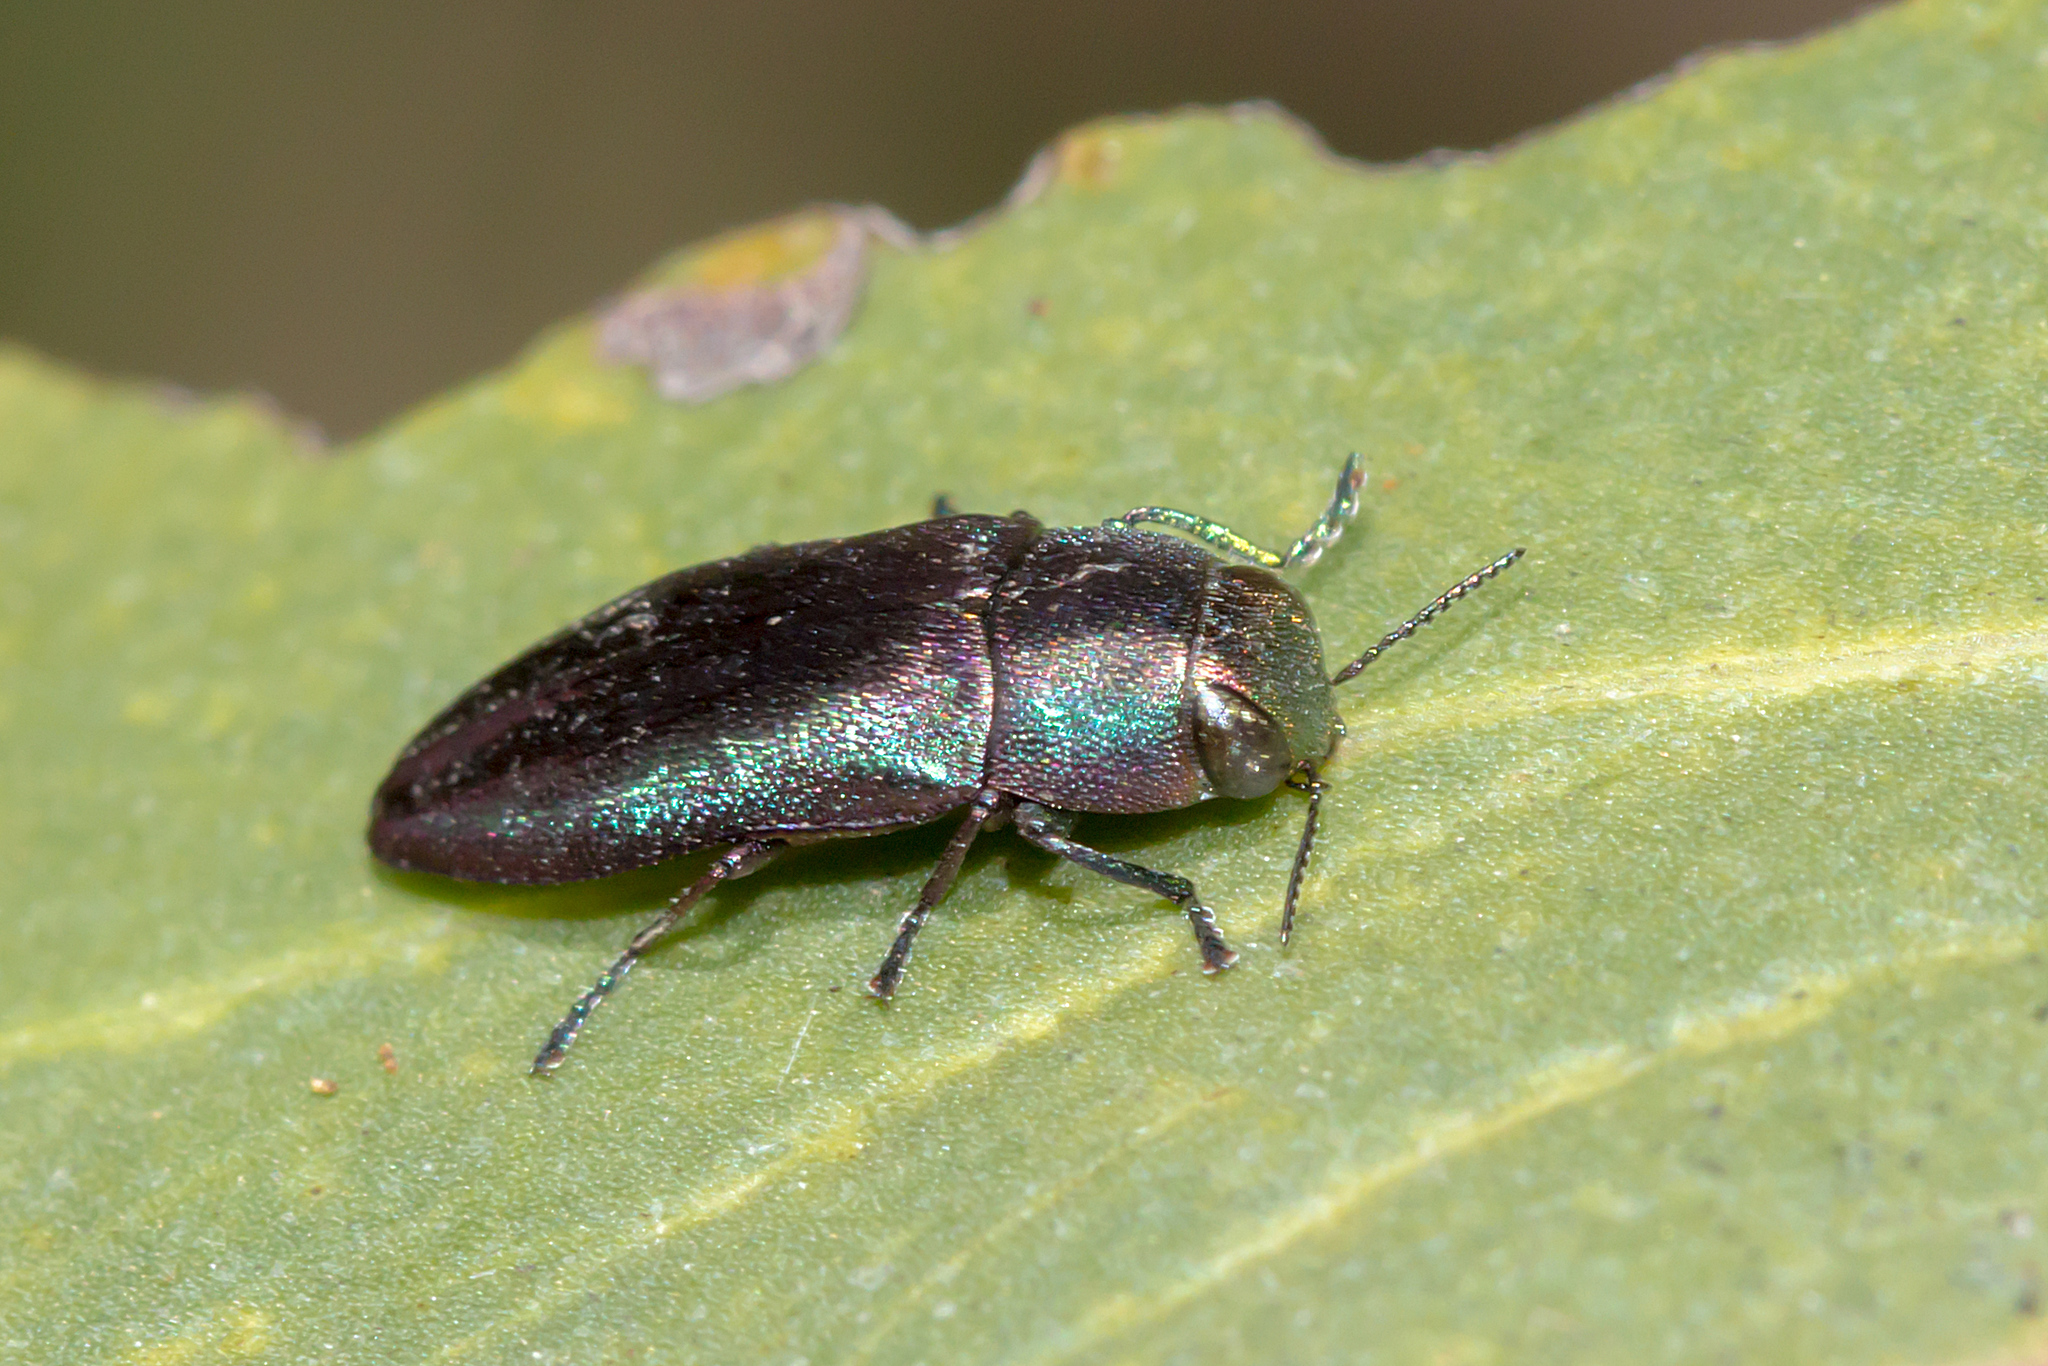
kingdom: Animalia
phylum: Arthropoda
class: Insecta
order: Coleoptera
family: Buprestidae
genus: Melobasis
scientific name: Melobasis thoracica
